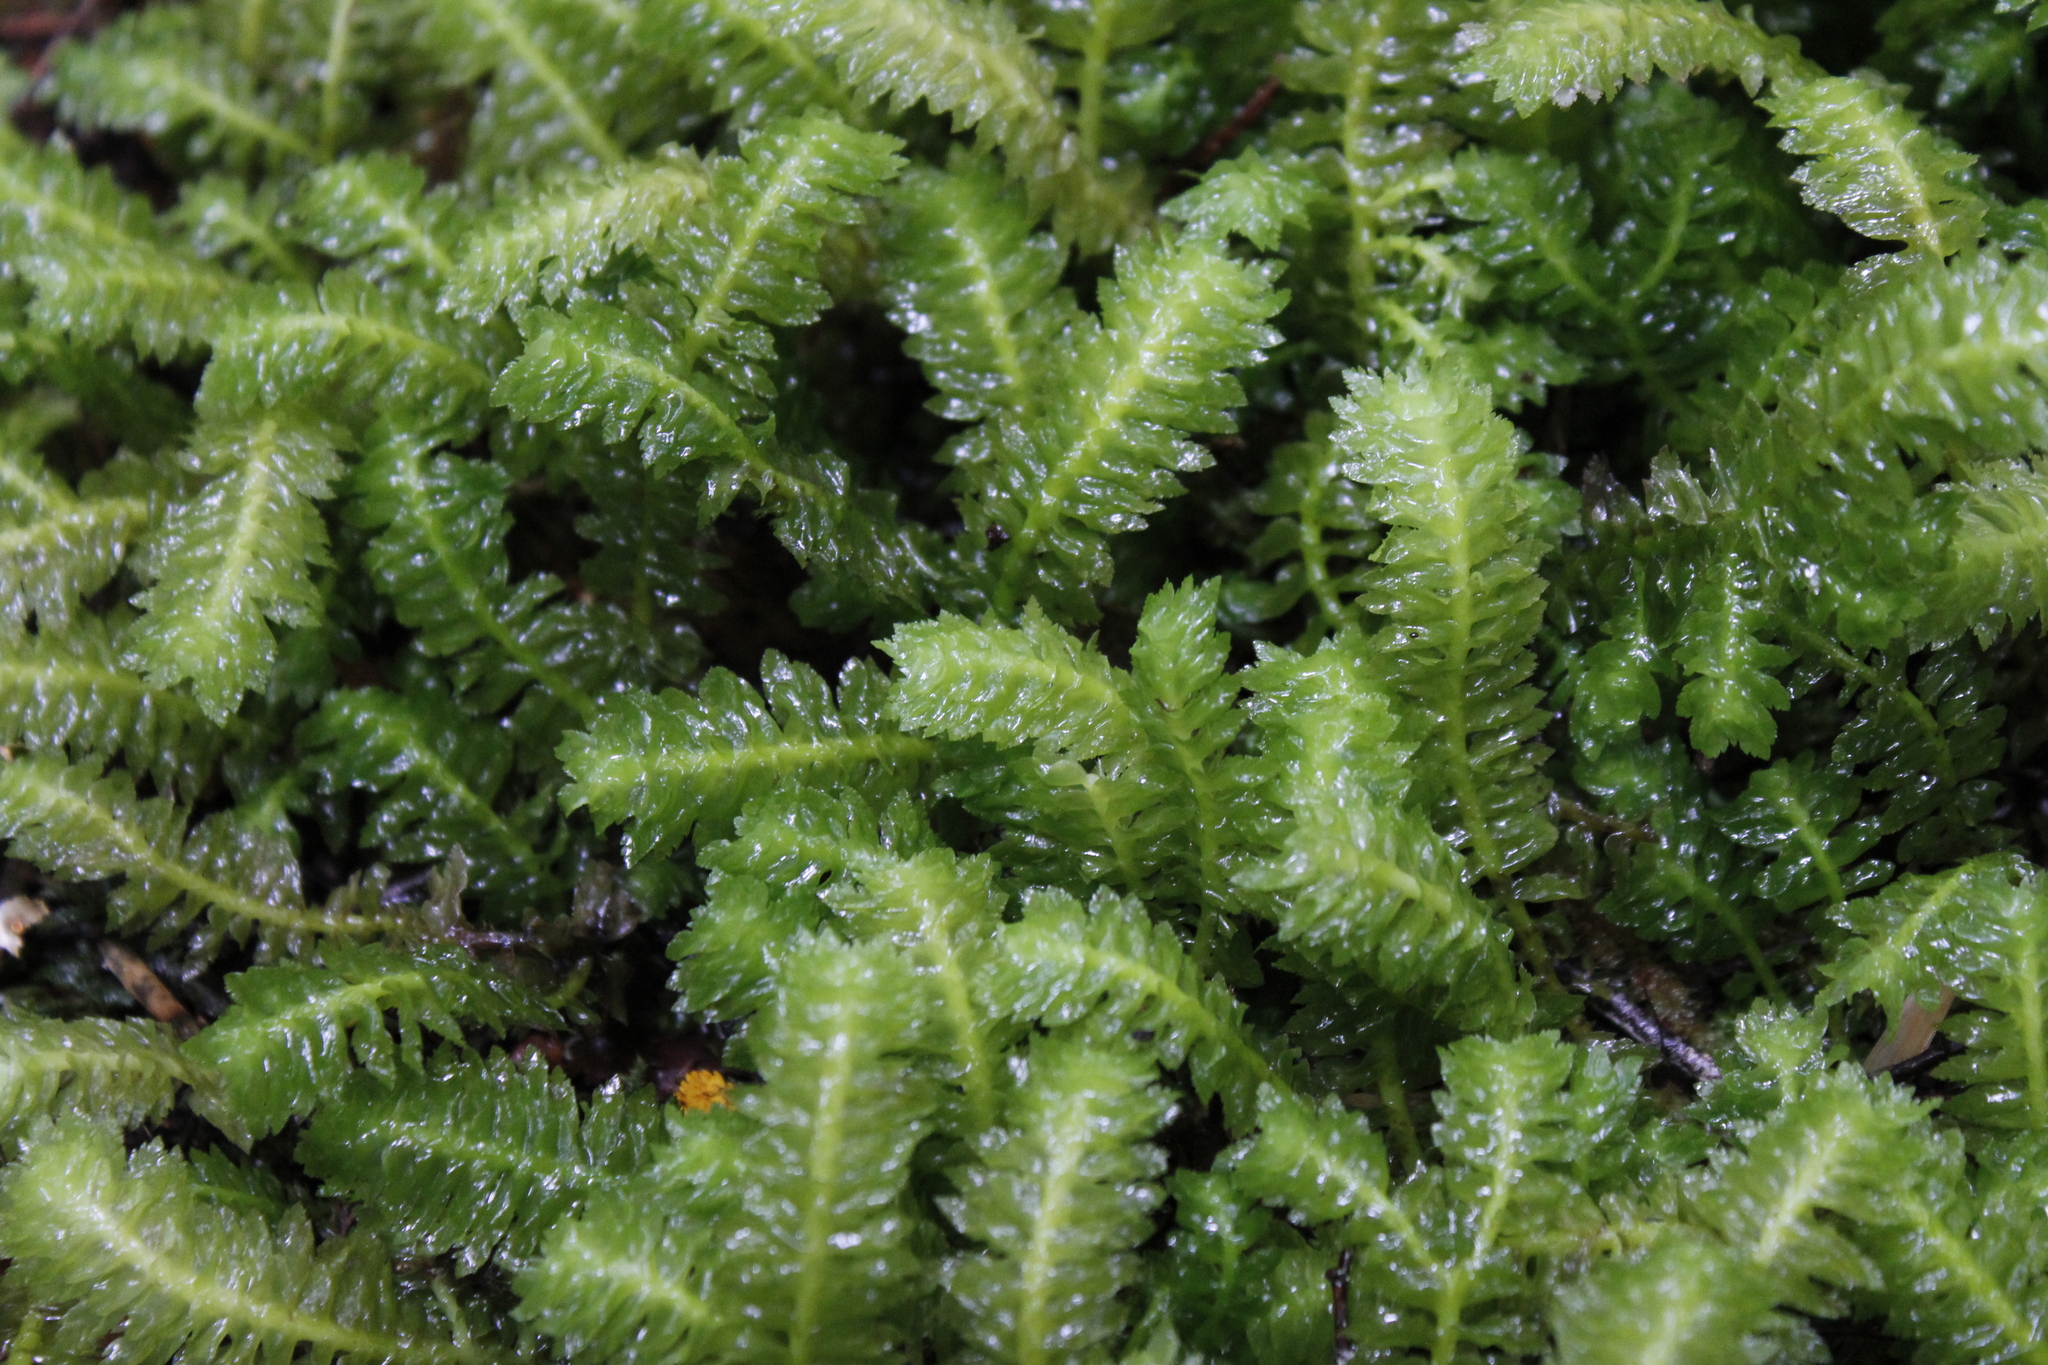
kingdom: Plantae
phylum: Marchantiophyta
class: Jungermanniopsida
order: Jungermanniales
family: Schistochilaceae
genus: Schistochila
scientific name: Schistochila appendiculata
